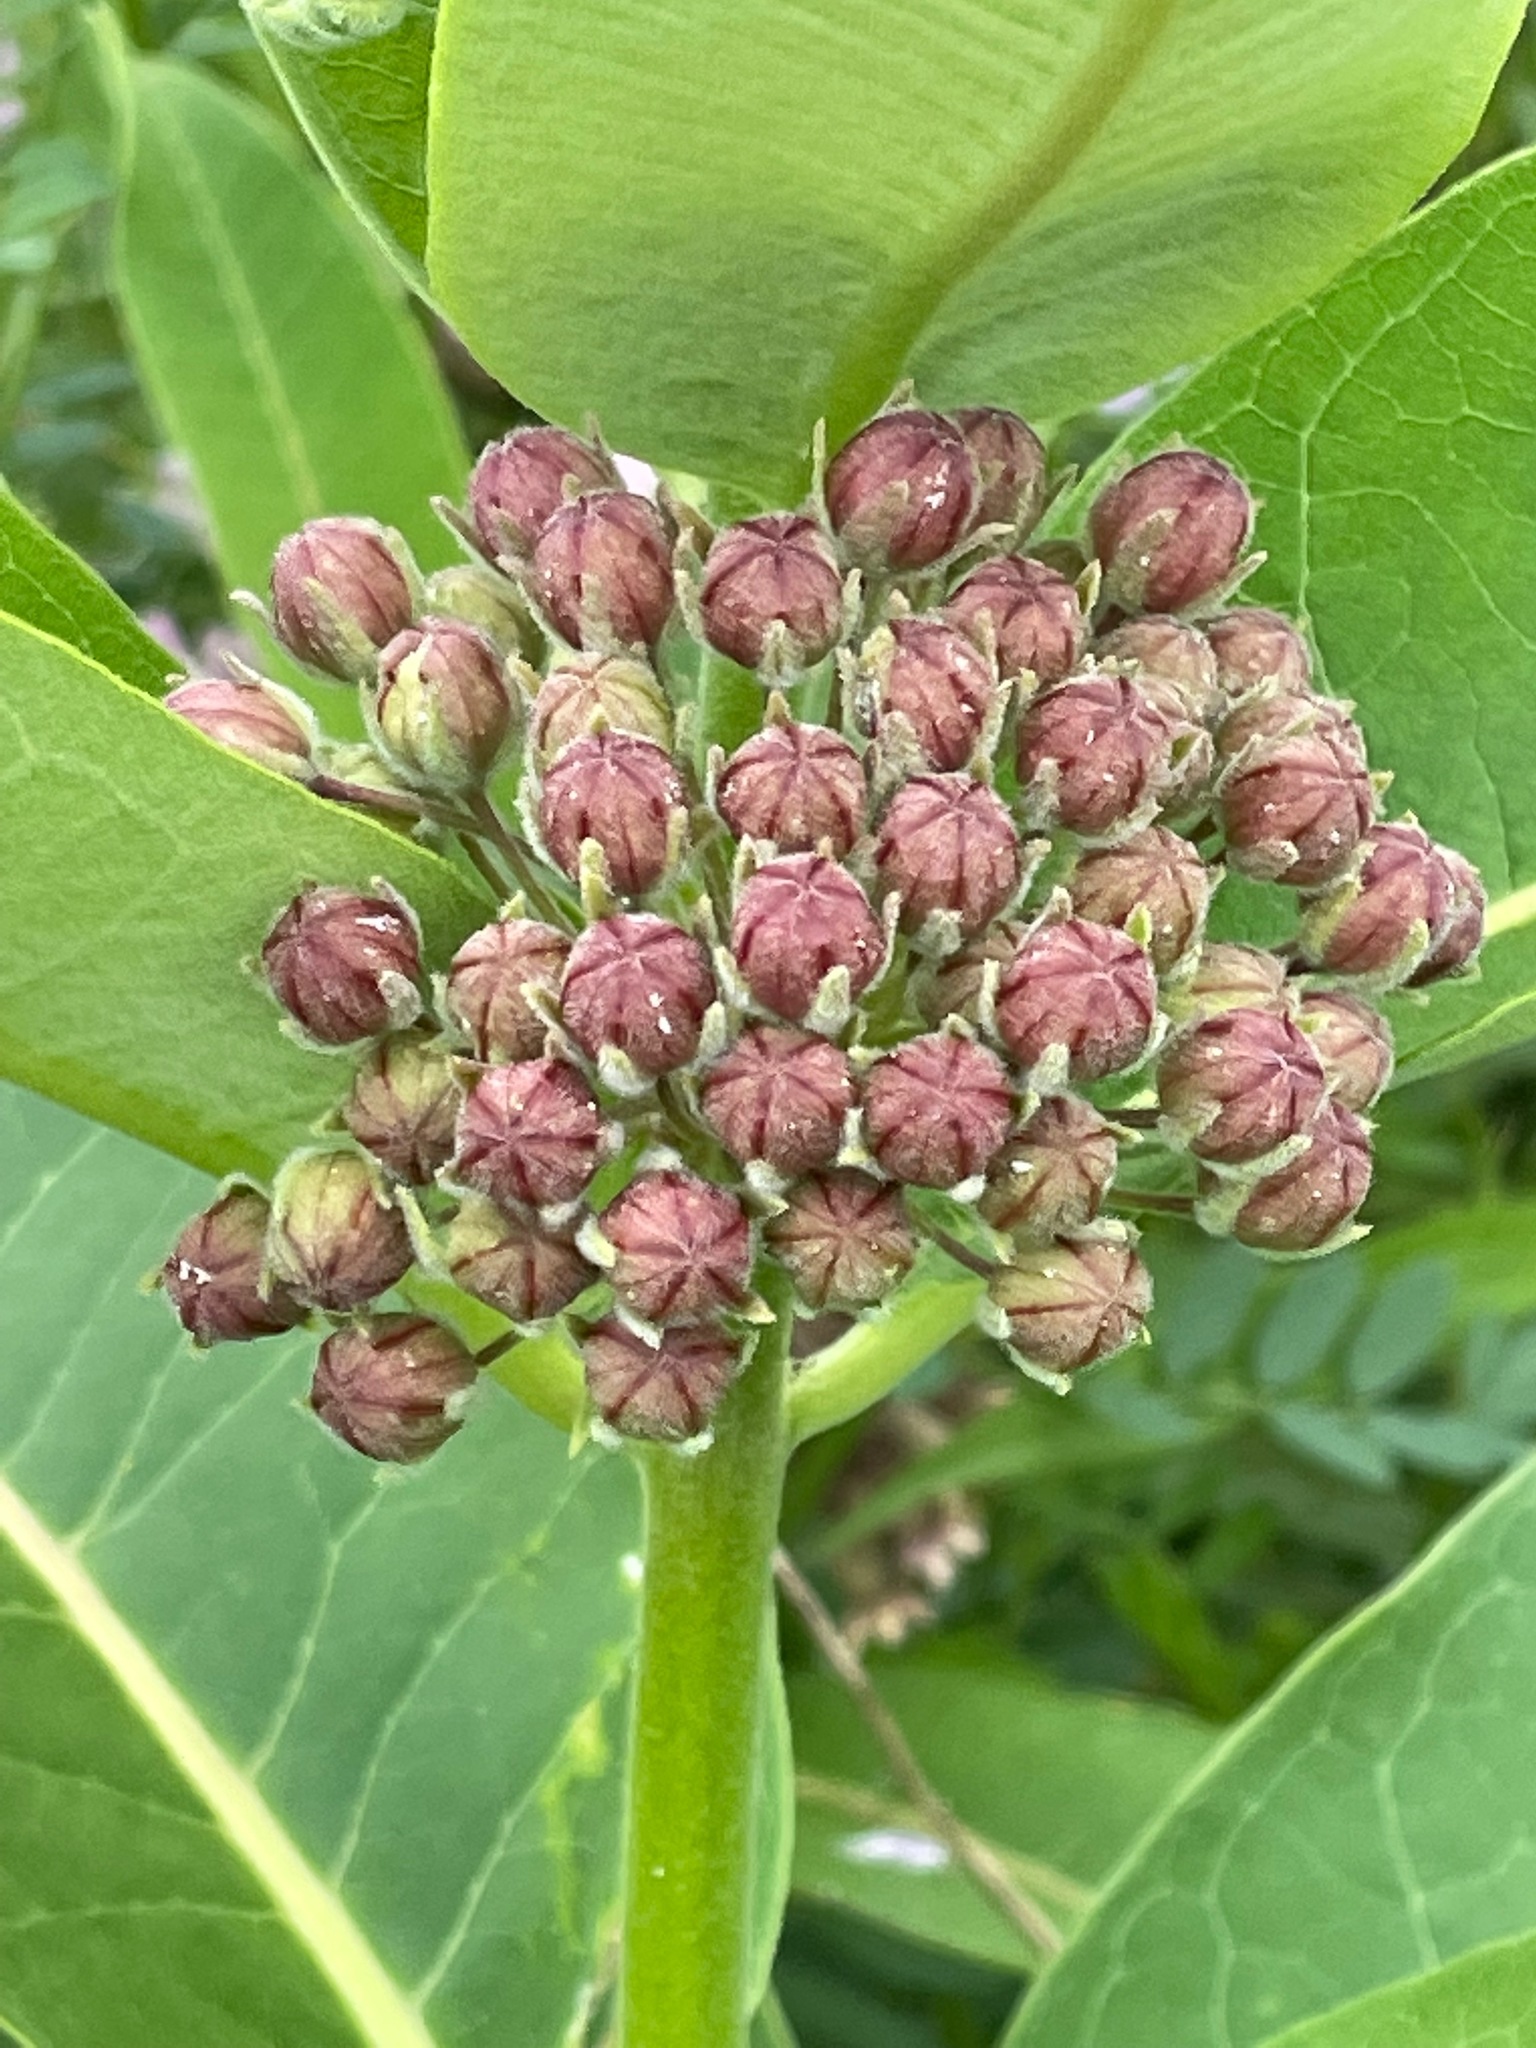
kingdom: Plantae
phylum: Tracheophyta
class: Magnoliopsida
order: Gentianales
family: Apocynaceae
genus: Asclepias
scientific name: Asclepias syriaca
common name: Common milkweed
